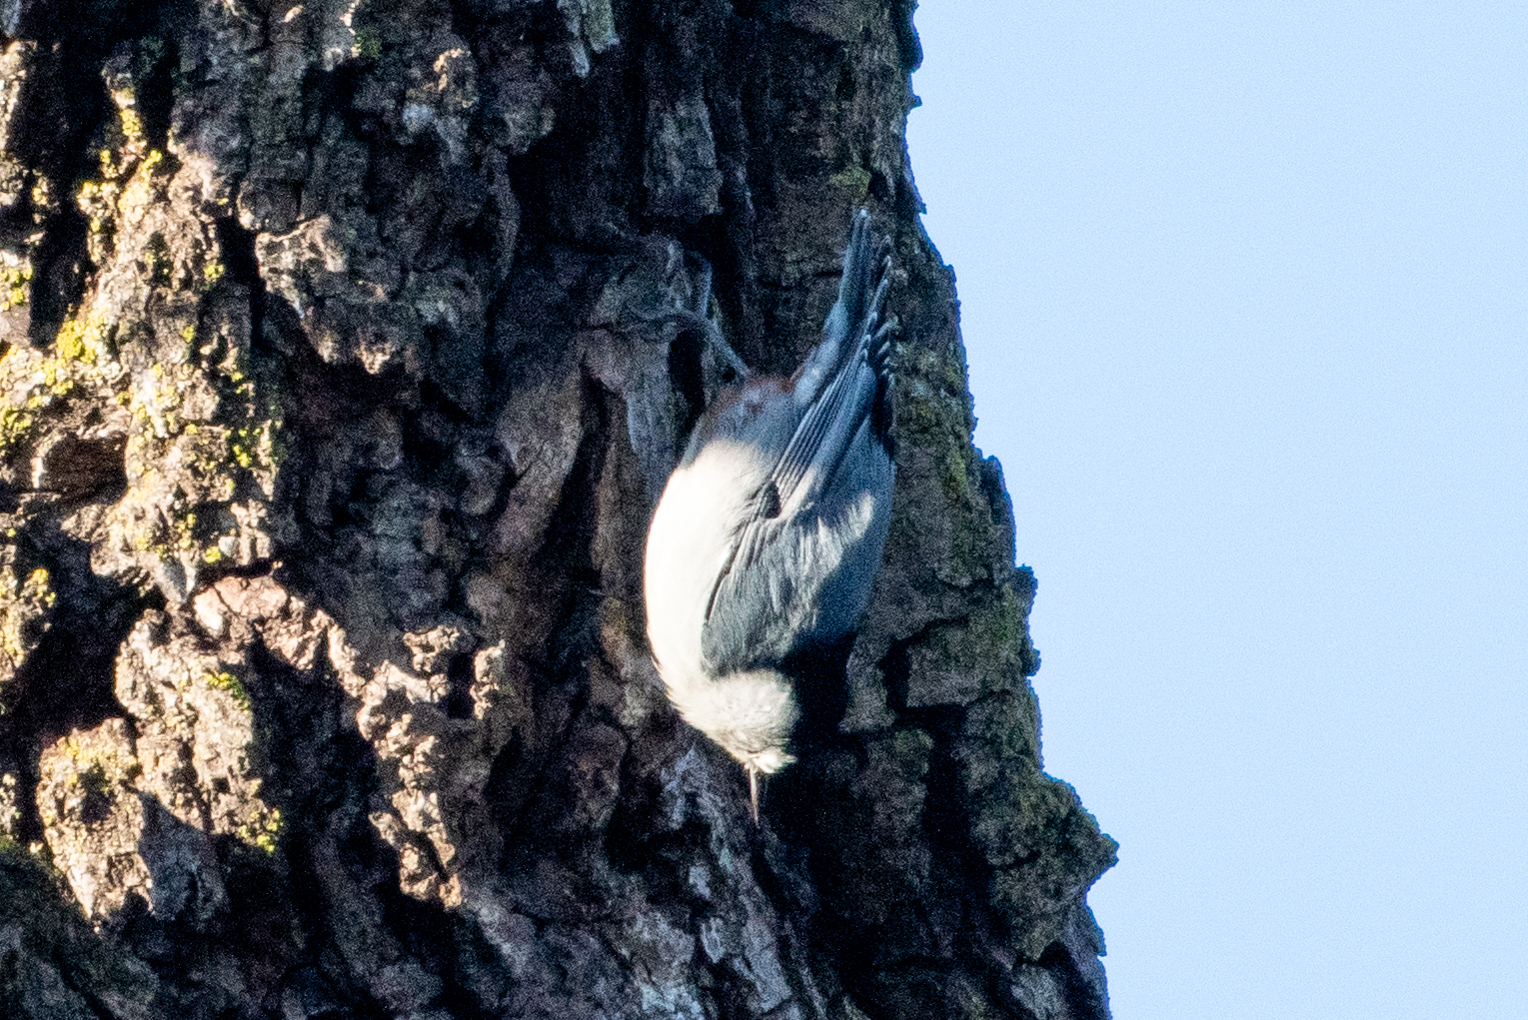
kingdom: Animalia
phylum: Chordata
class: Aves
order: Passeriformes
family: Sittidae
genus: Sitta
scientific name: Sitta carolinensis
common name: White-breasted nuthatch
